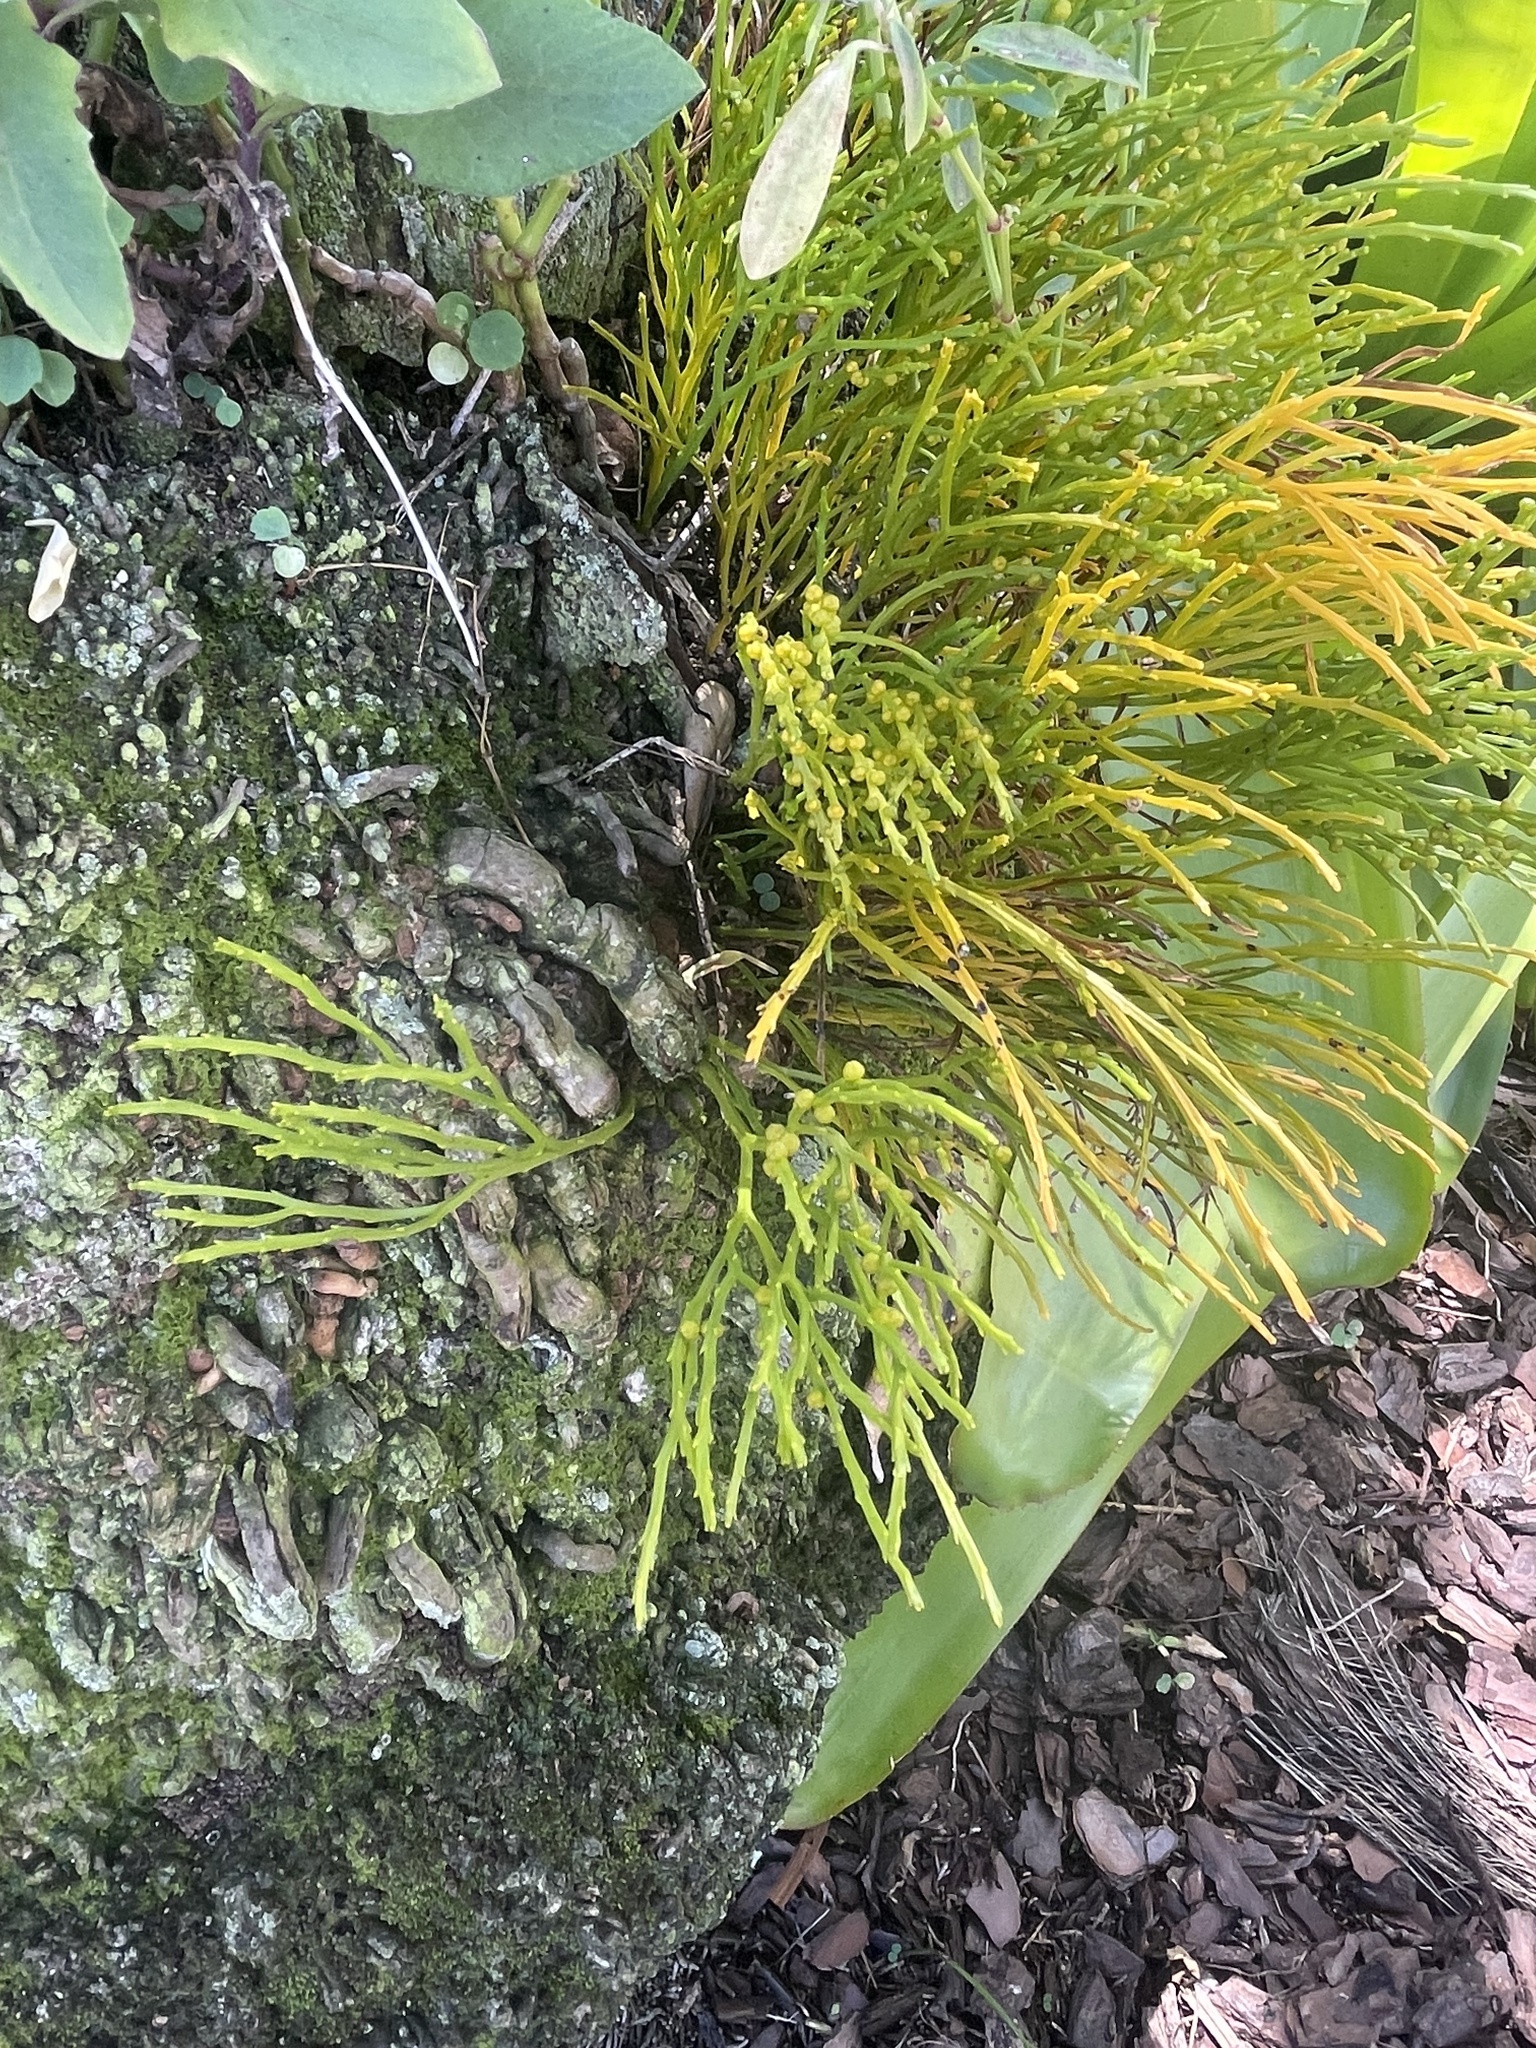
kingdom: Plantae
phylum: Tracheophyta
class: Polypodiopsida
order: Psilotales
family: Psilotaceae
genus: Psilotum
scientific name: Psilotum nudum
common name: Skeleton fork fern
